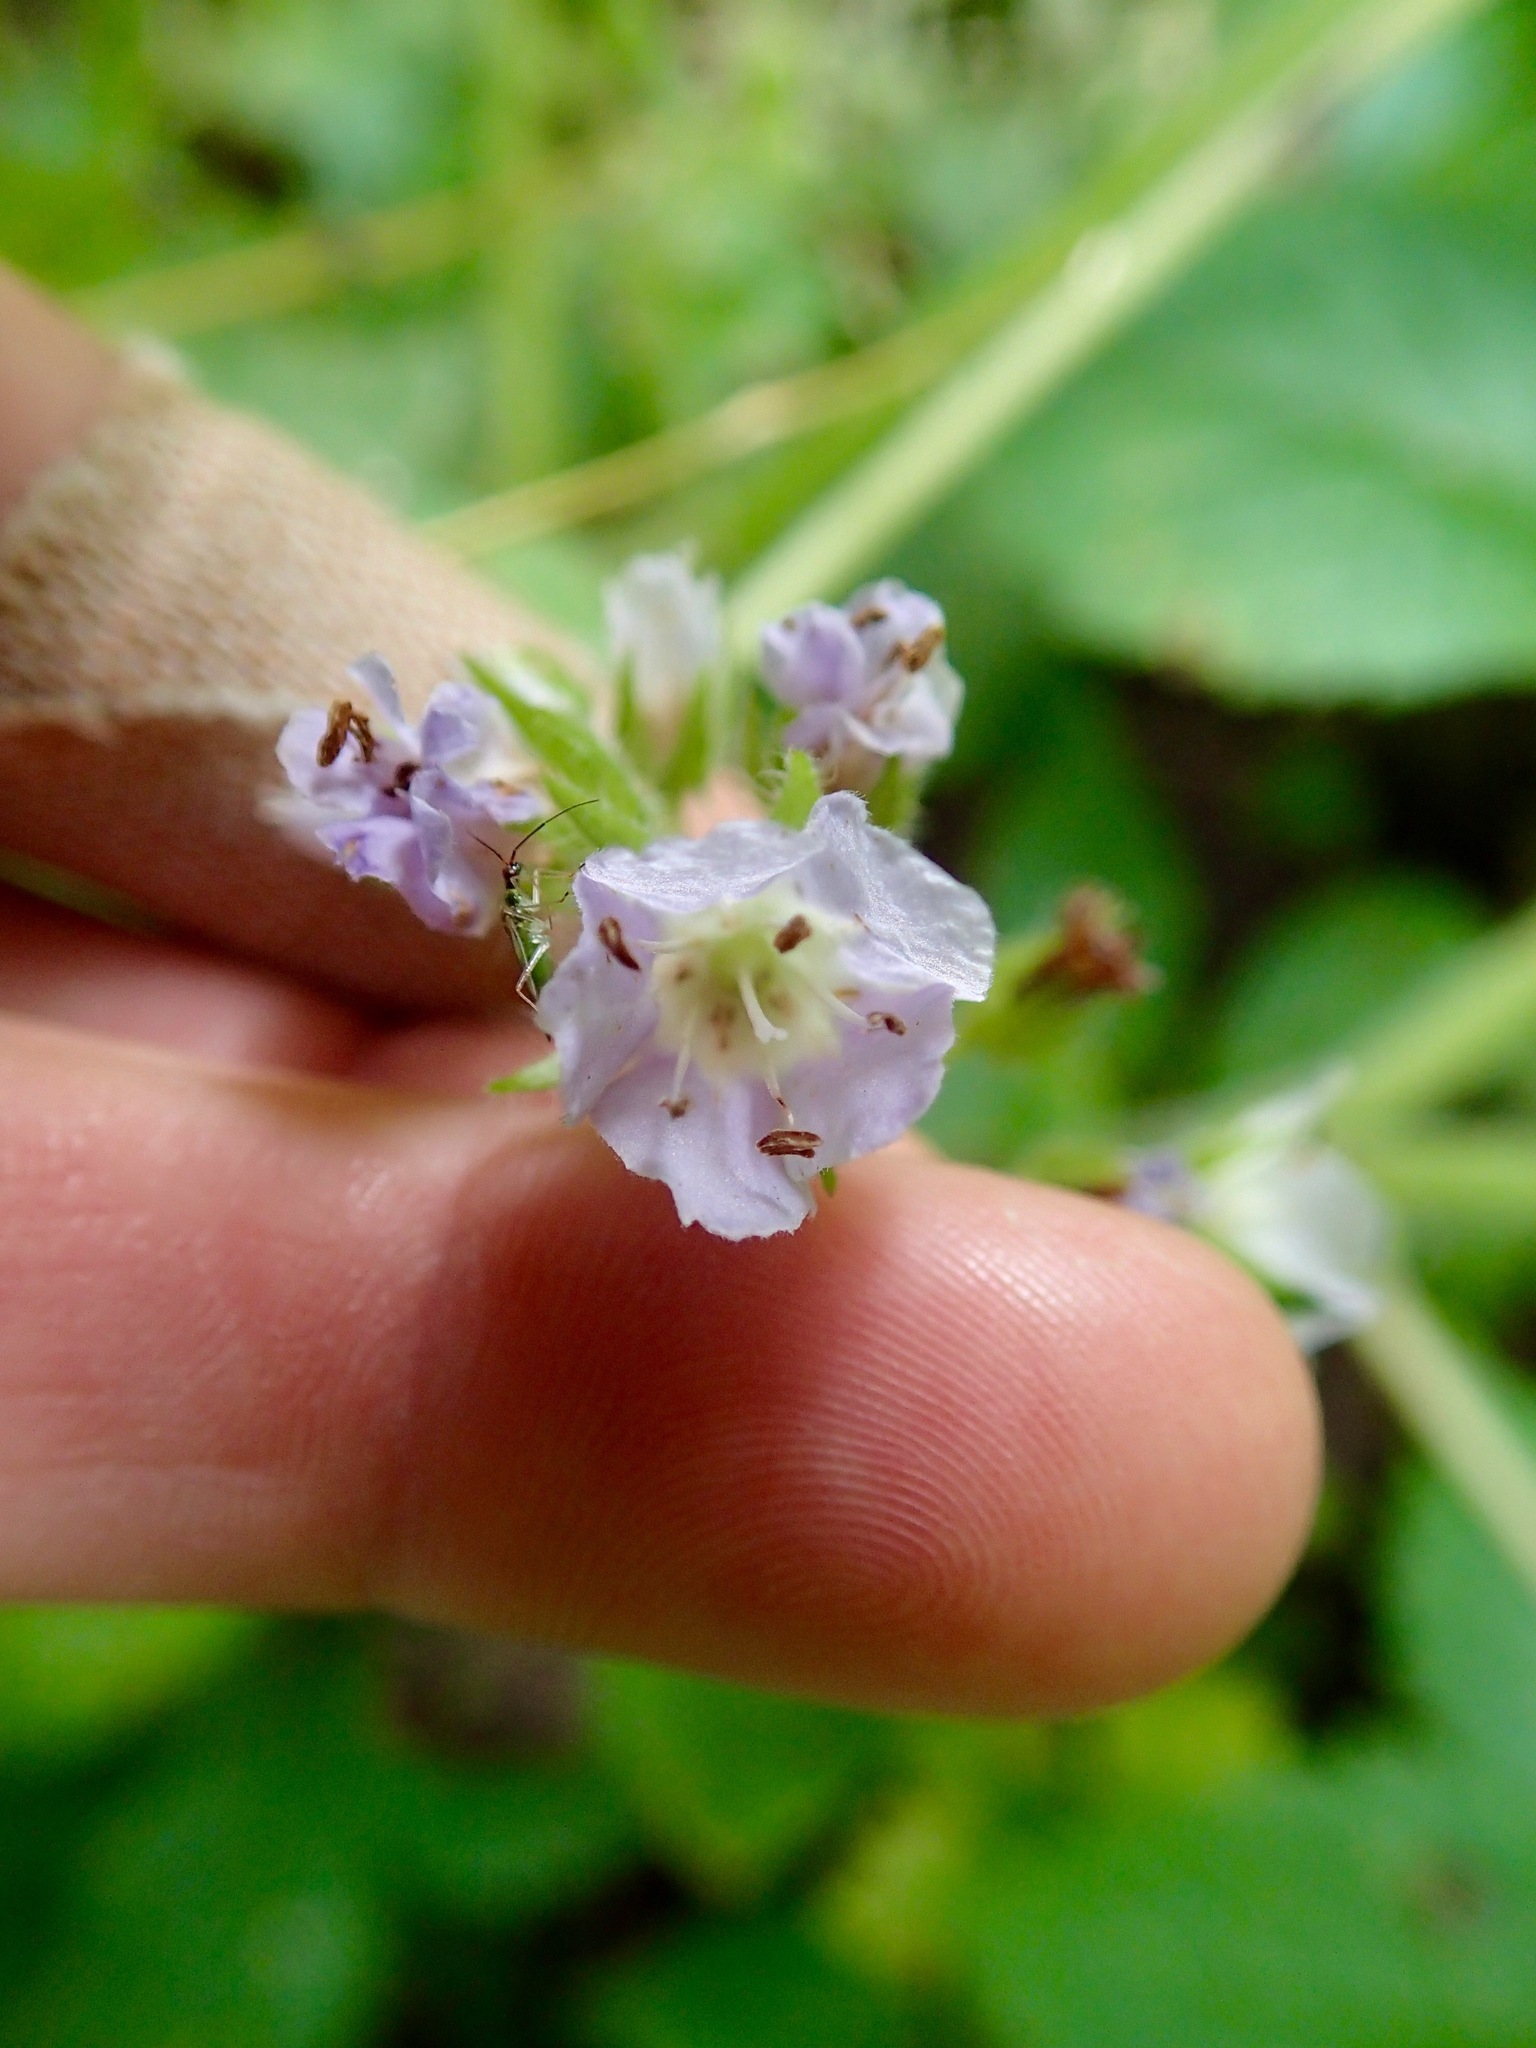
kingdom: Plantae
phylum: Tracheophyta
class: Magnoliopsida
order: Boraginales
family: Hydrophyllaceae
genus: Hydrophyllum
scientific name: Hydrophyllum appendiculatum
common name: Appendaged waterleaf
